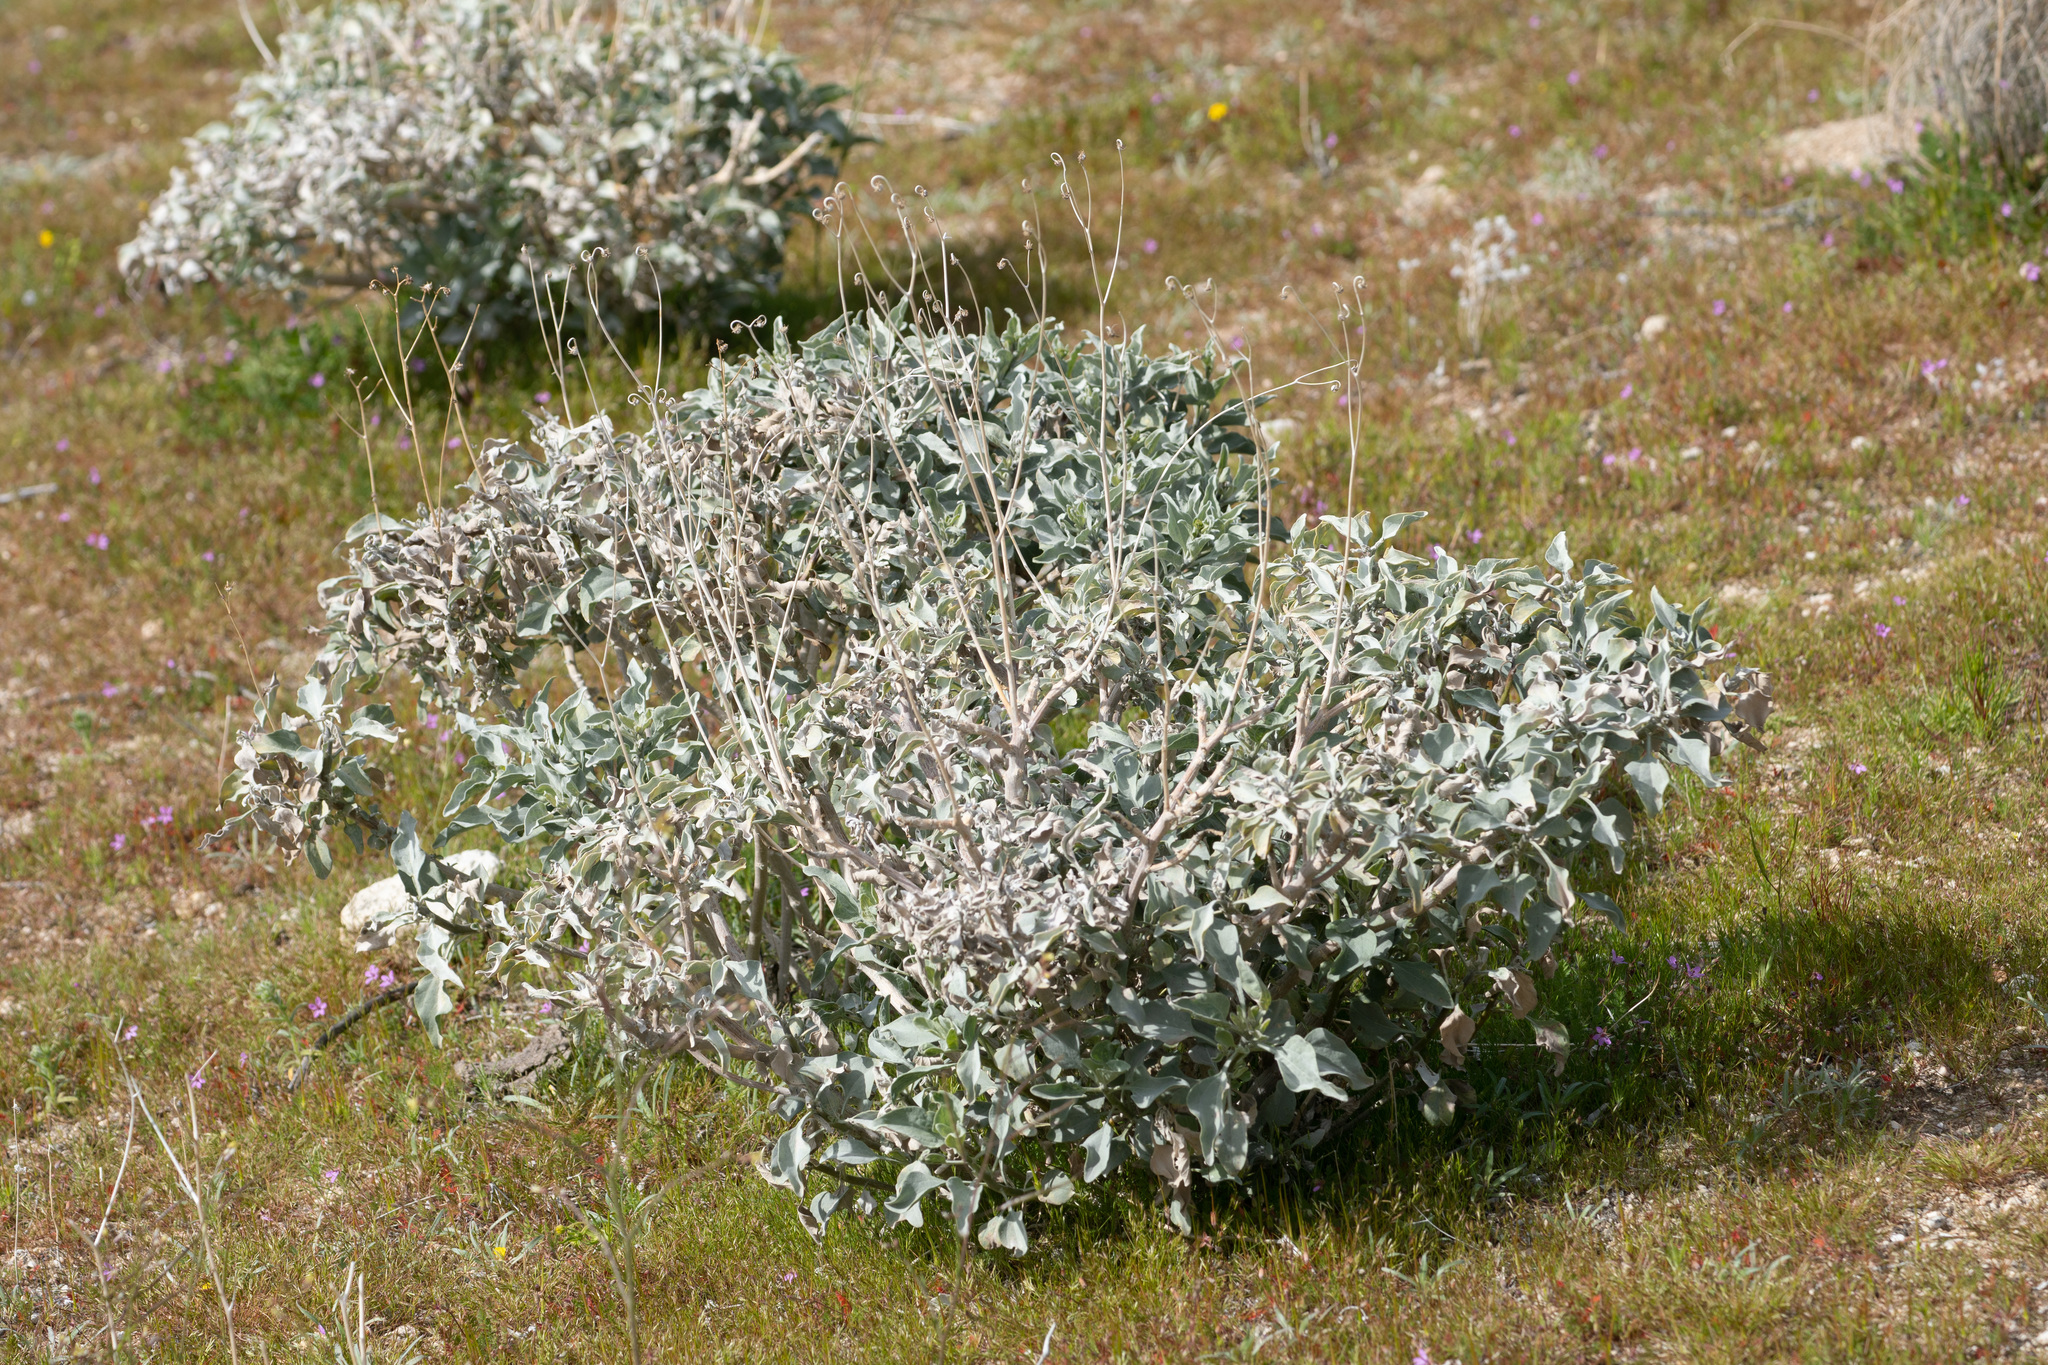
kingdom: Plantae
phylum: Tracheophyta
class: Magnoliopsida
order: Asterales
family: Asteraceae
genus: Encelia
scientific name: Encelia farinosa
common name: Brittlebush
